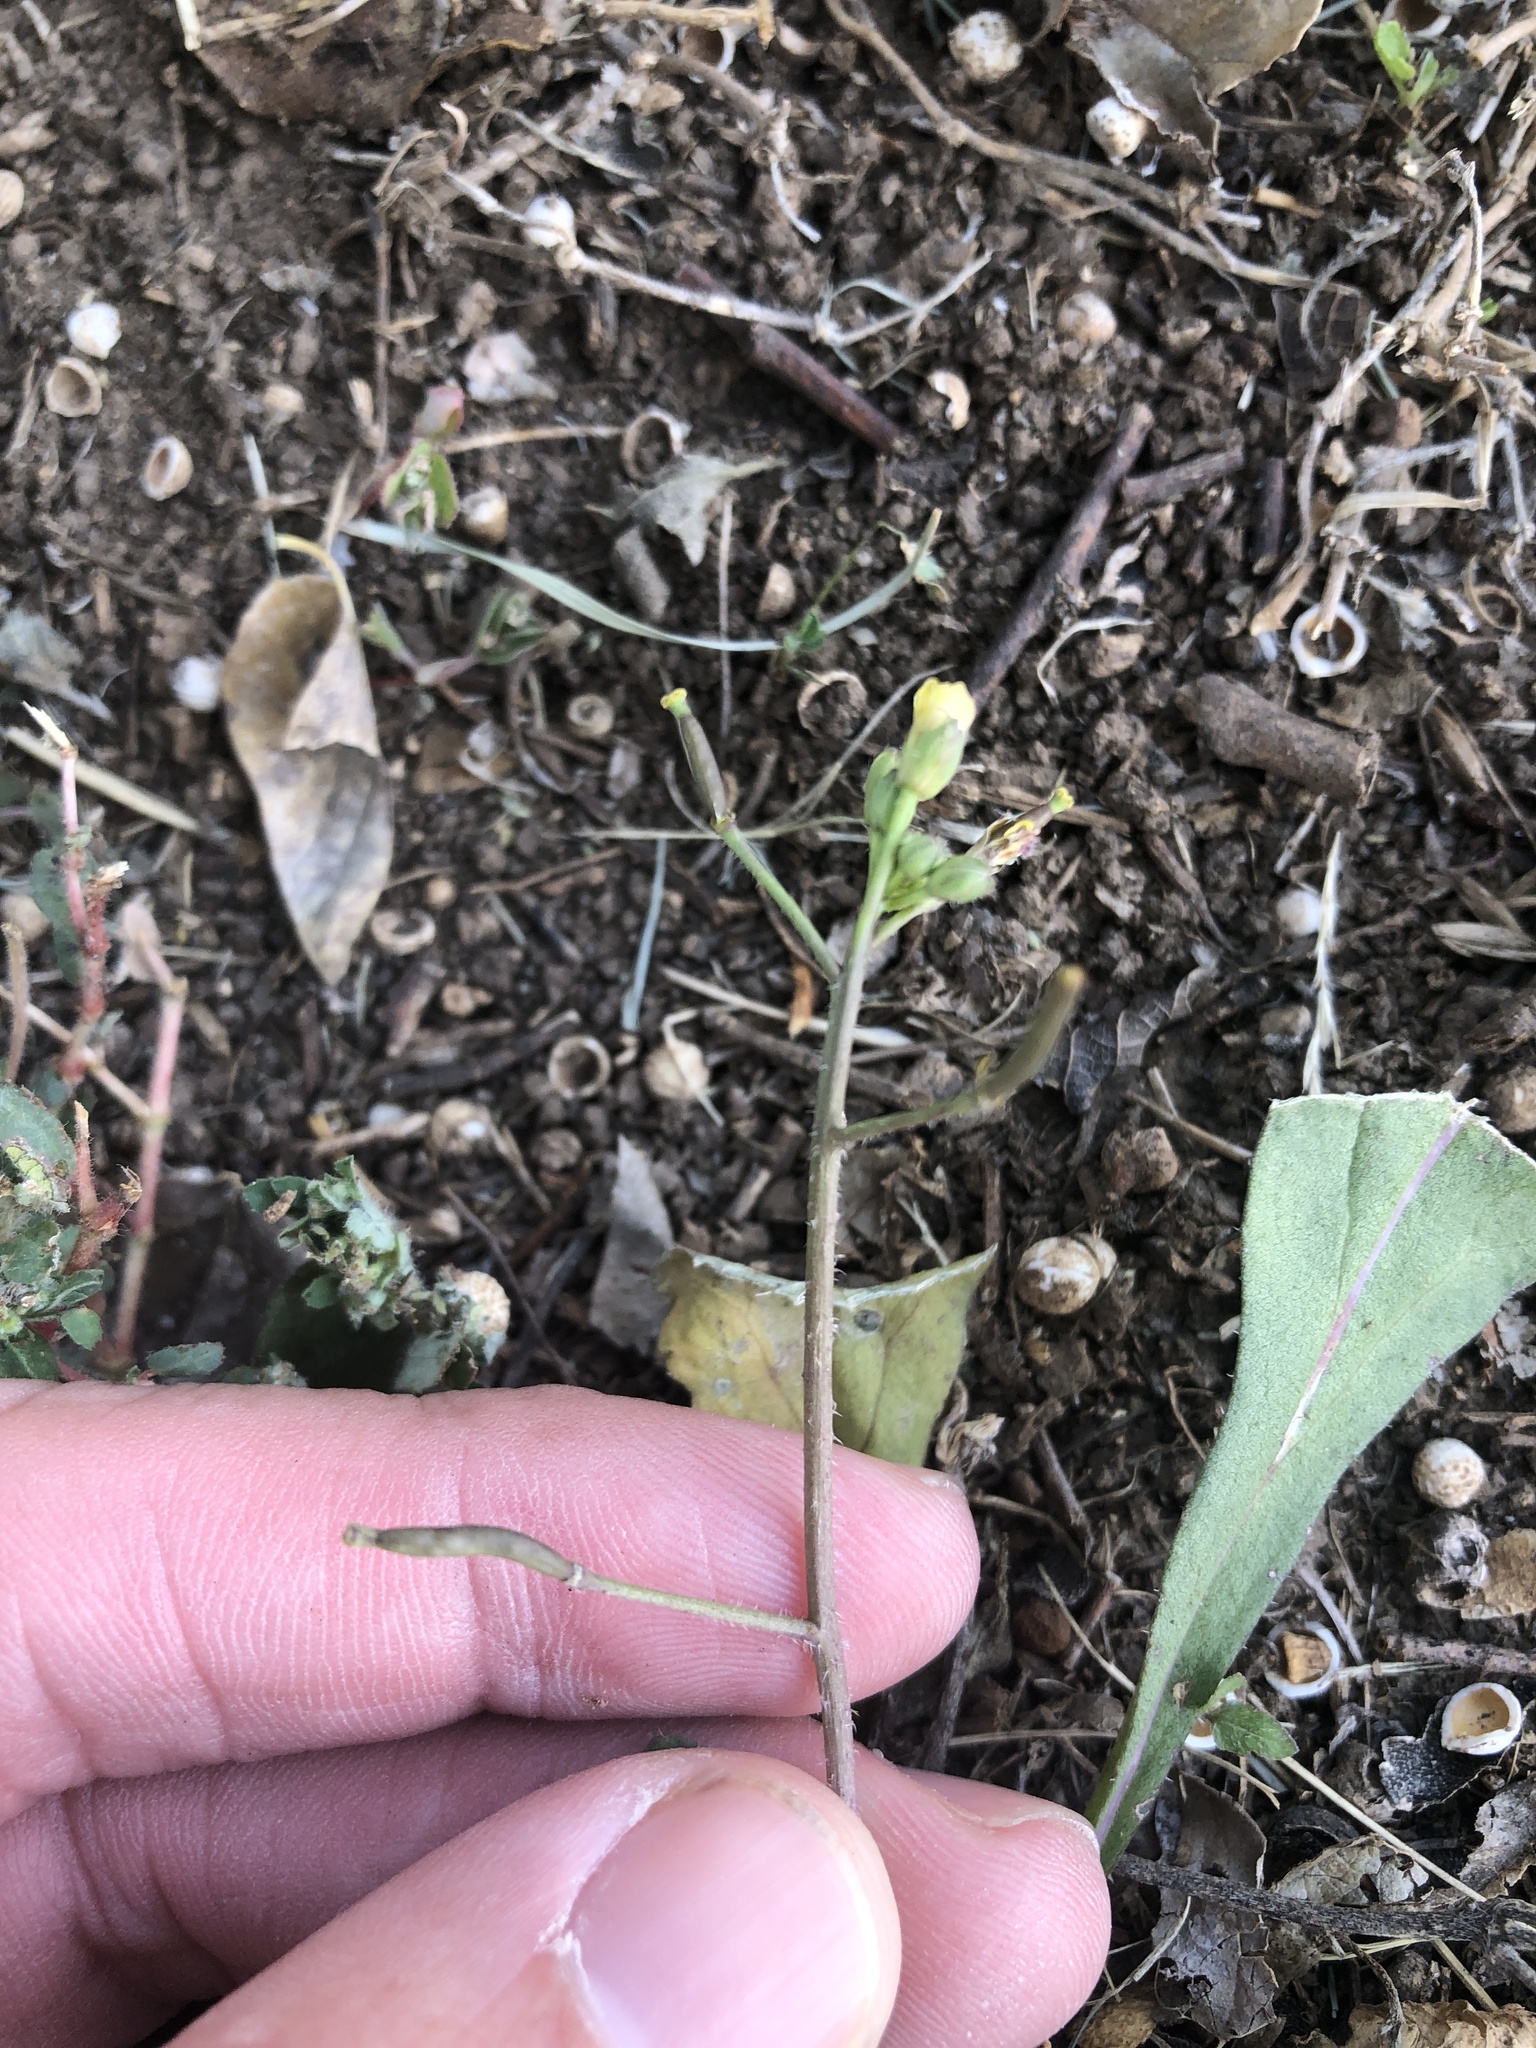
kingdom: Plantae
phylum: Tracheophyta
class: Magnoliopsida
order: Brassicales
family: Brassicaceae
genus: Diplotaxis
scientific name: Diplotaxis muralis
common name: Annual wall-rocket
